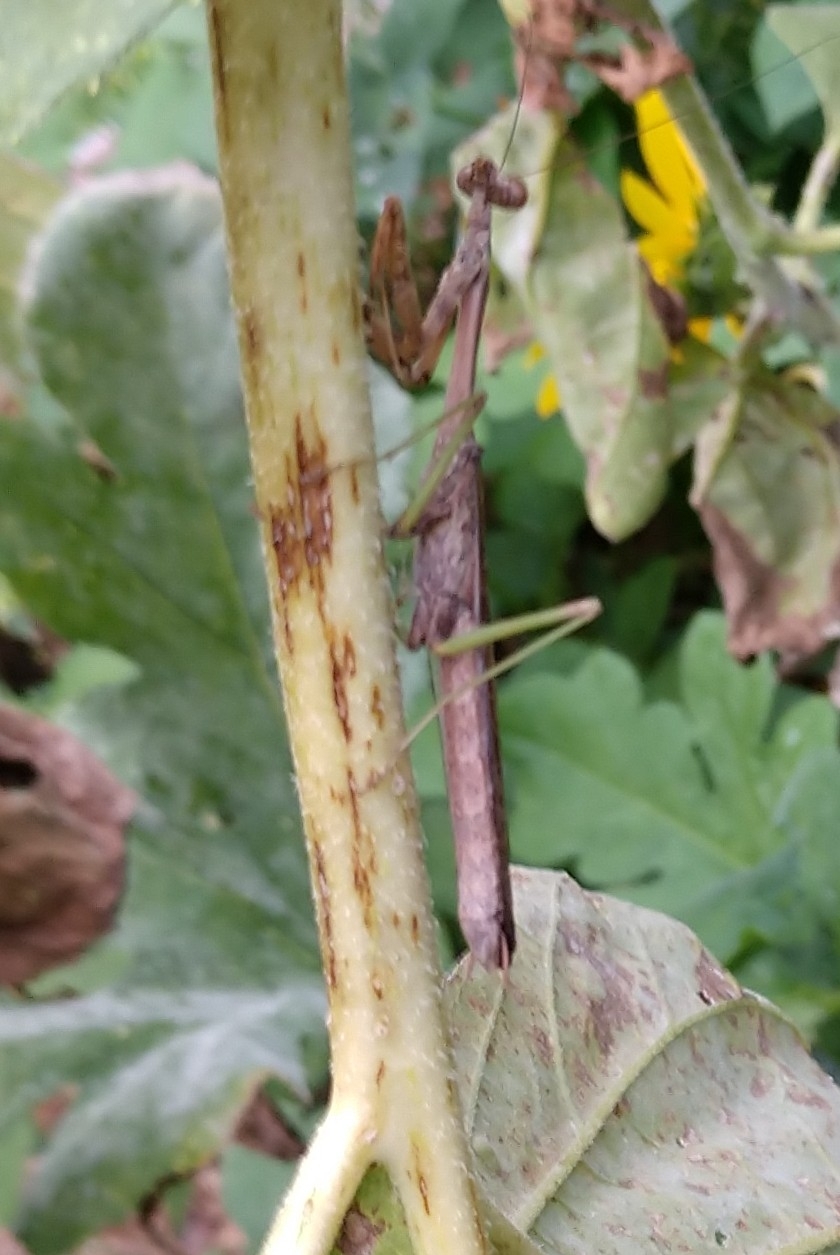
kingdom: Animalia
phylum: Arthropoda
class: Insecta
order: Mantodea
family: Mantidae
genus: Stagmomantis
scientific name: Stagmomantis carolina
